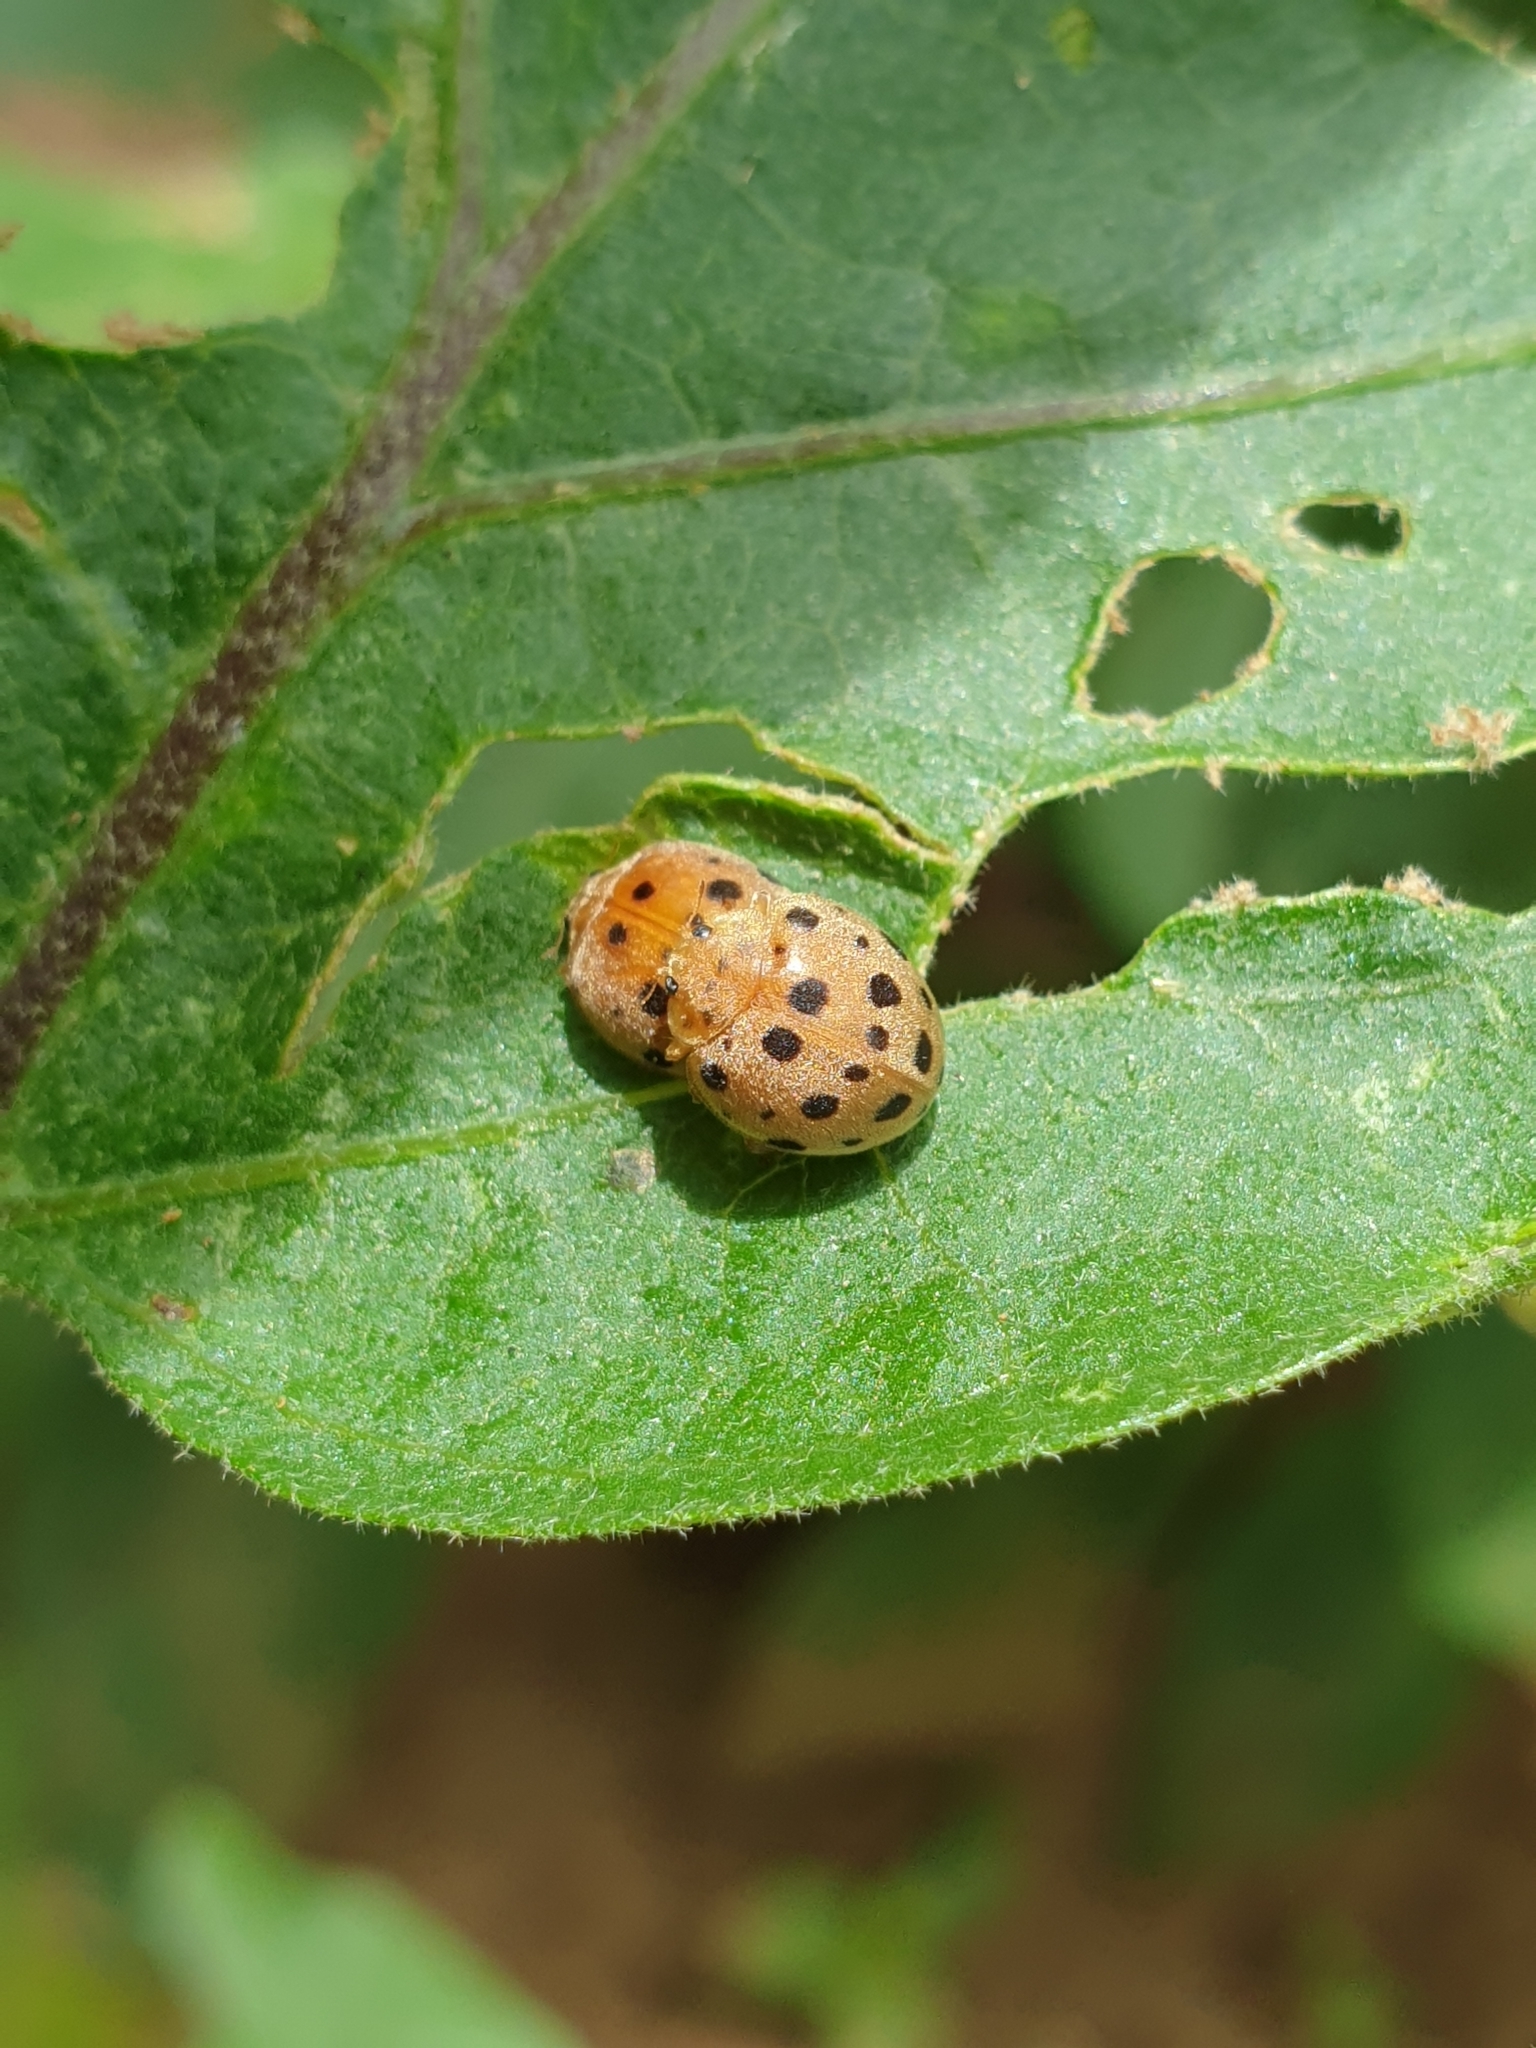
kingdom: Animalia
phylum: Arthropoda
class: Insecta
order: Coleoptera
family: Coccinellidae
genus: Henosepilachna
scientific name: Henosepilachna vigintioctopunctata
